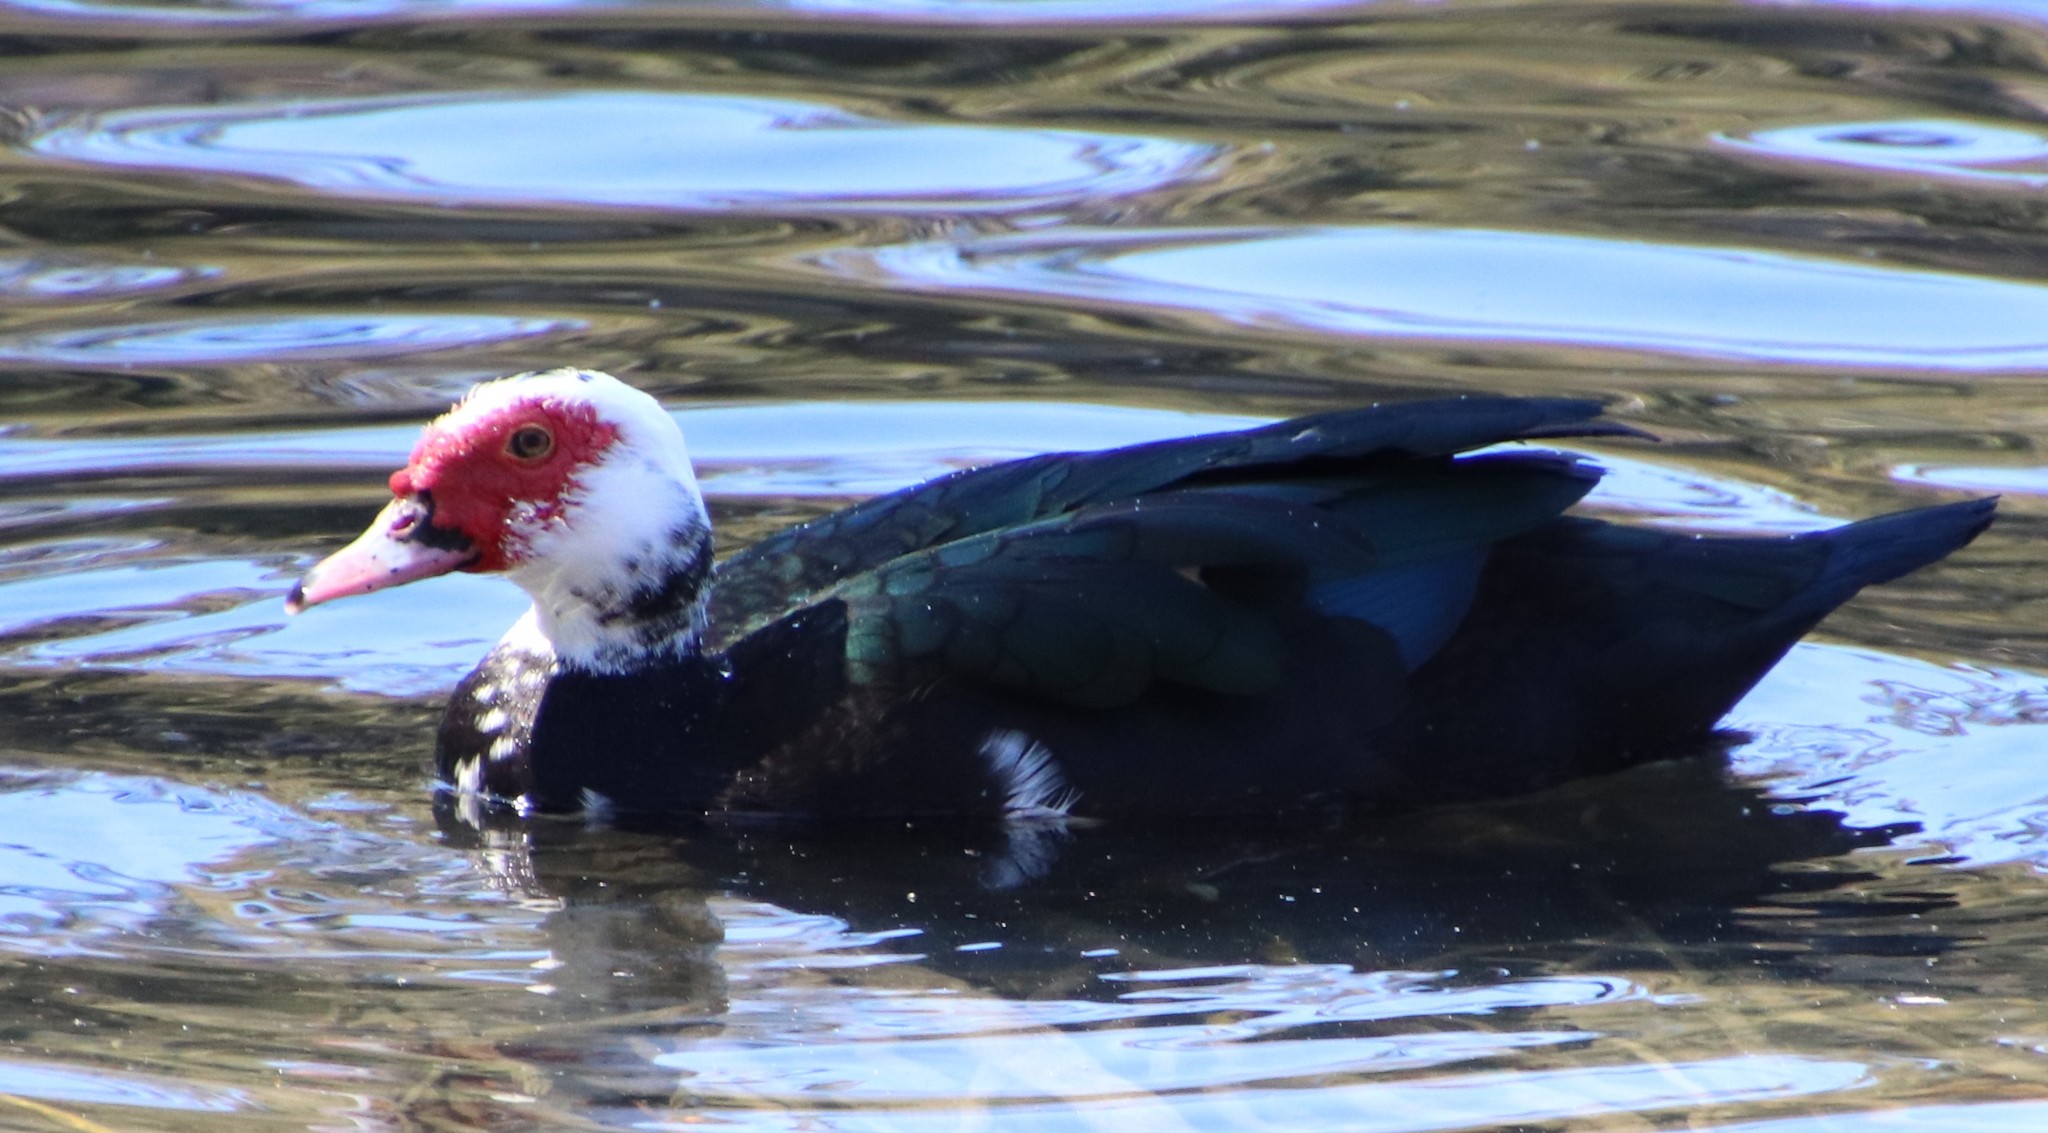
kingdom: Animalia
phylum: Chordata
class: Aves
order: Anseriformes
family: Anatidae
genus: Cairina
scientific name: Cairina moschata
